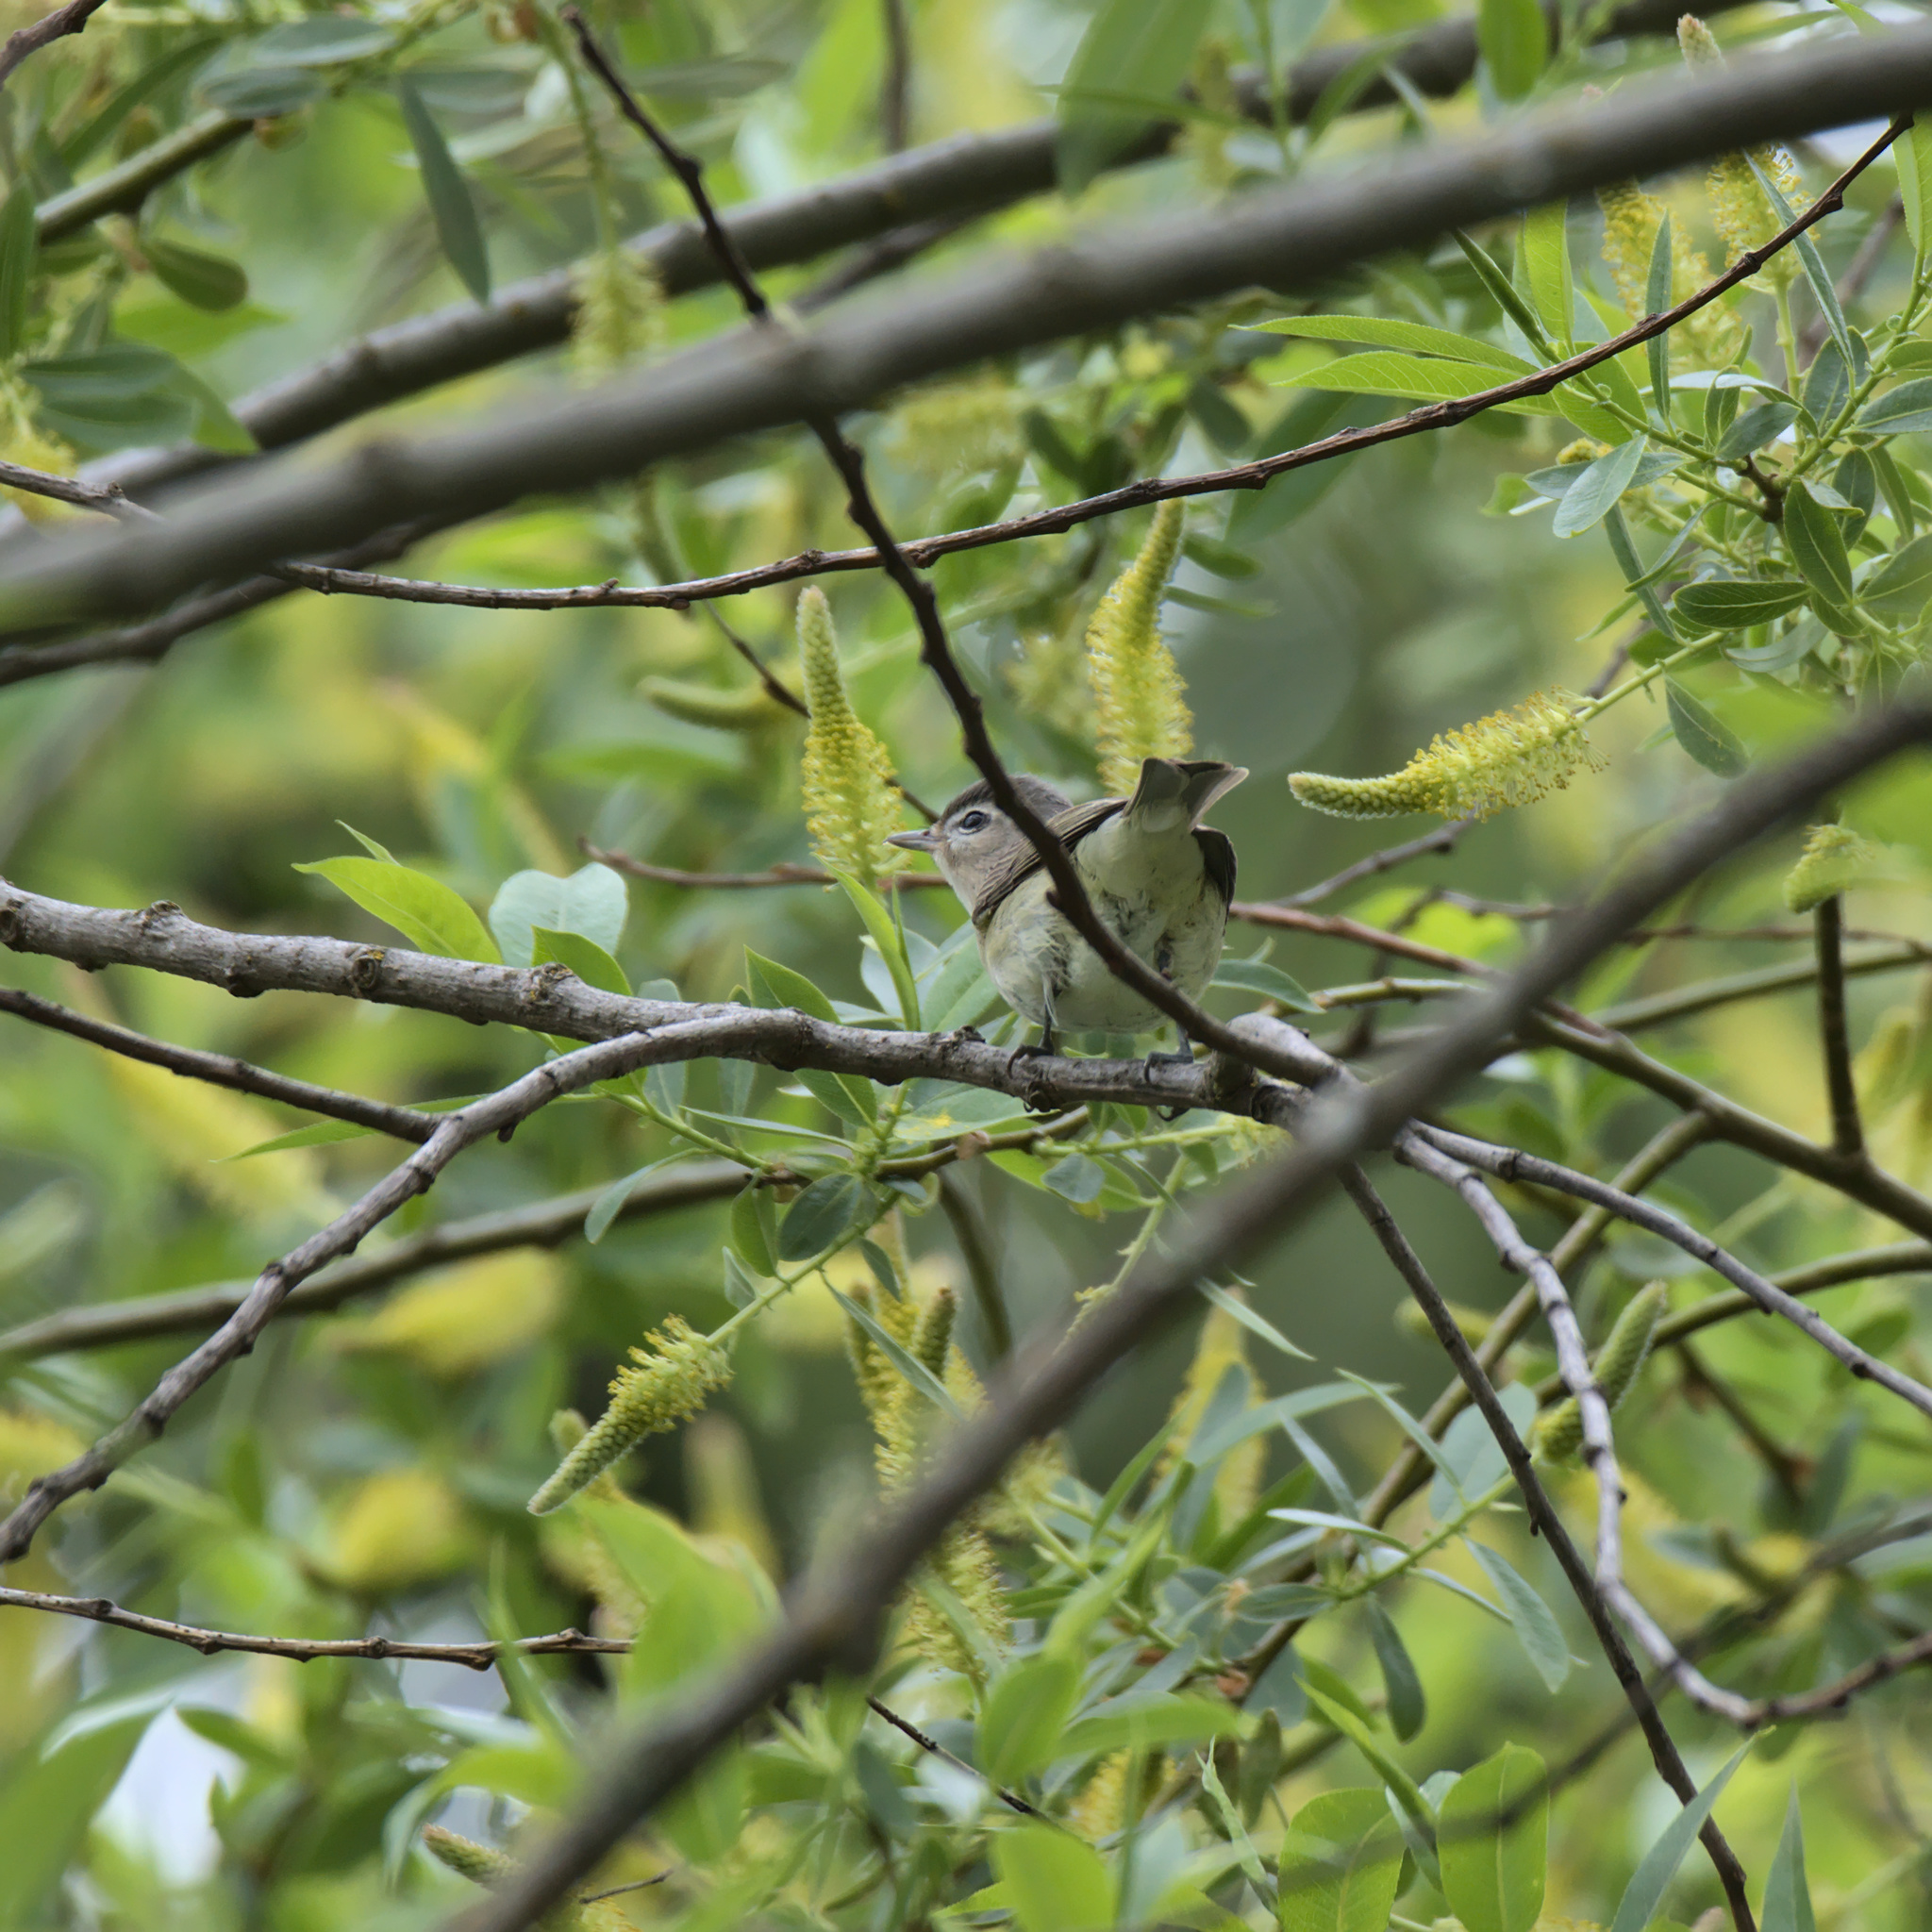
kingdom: Animalia
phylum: Chordata
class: Aves
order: Passeriformes
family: Vireonidae
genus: Vireo
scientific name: Vireo gilvus
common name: Warbling vireo
